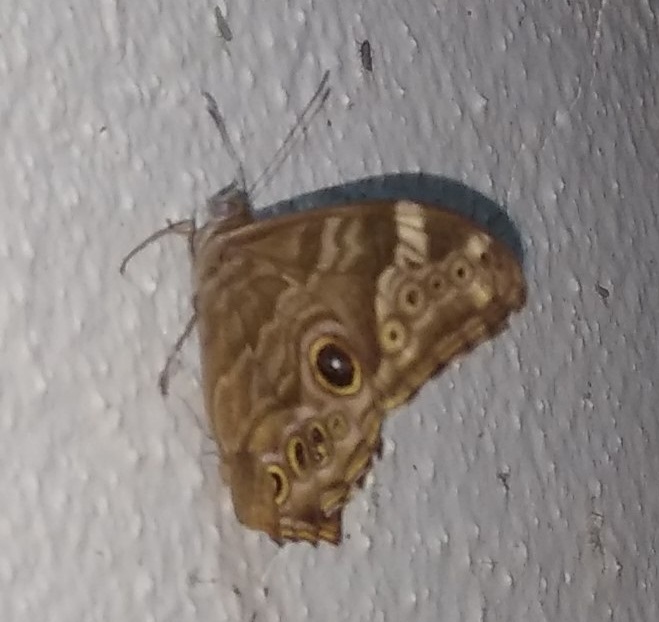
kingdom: Animalia
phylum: Arthropoda
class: Insecta
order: Lepidoptera
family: Nymphalidae
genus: Lethe
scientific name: Lethe rohria
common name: Common treebrown
